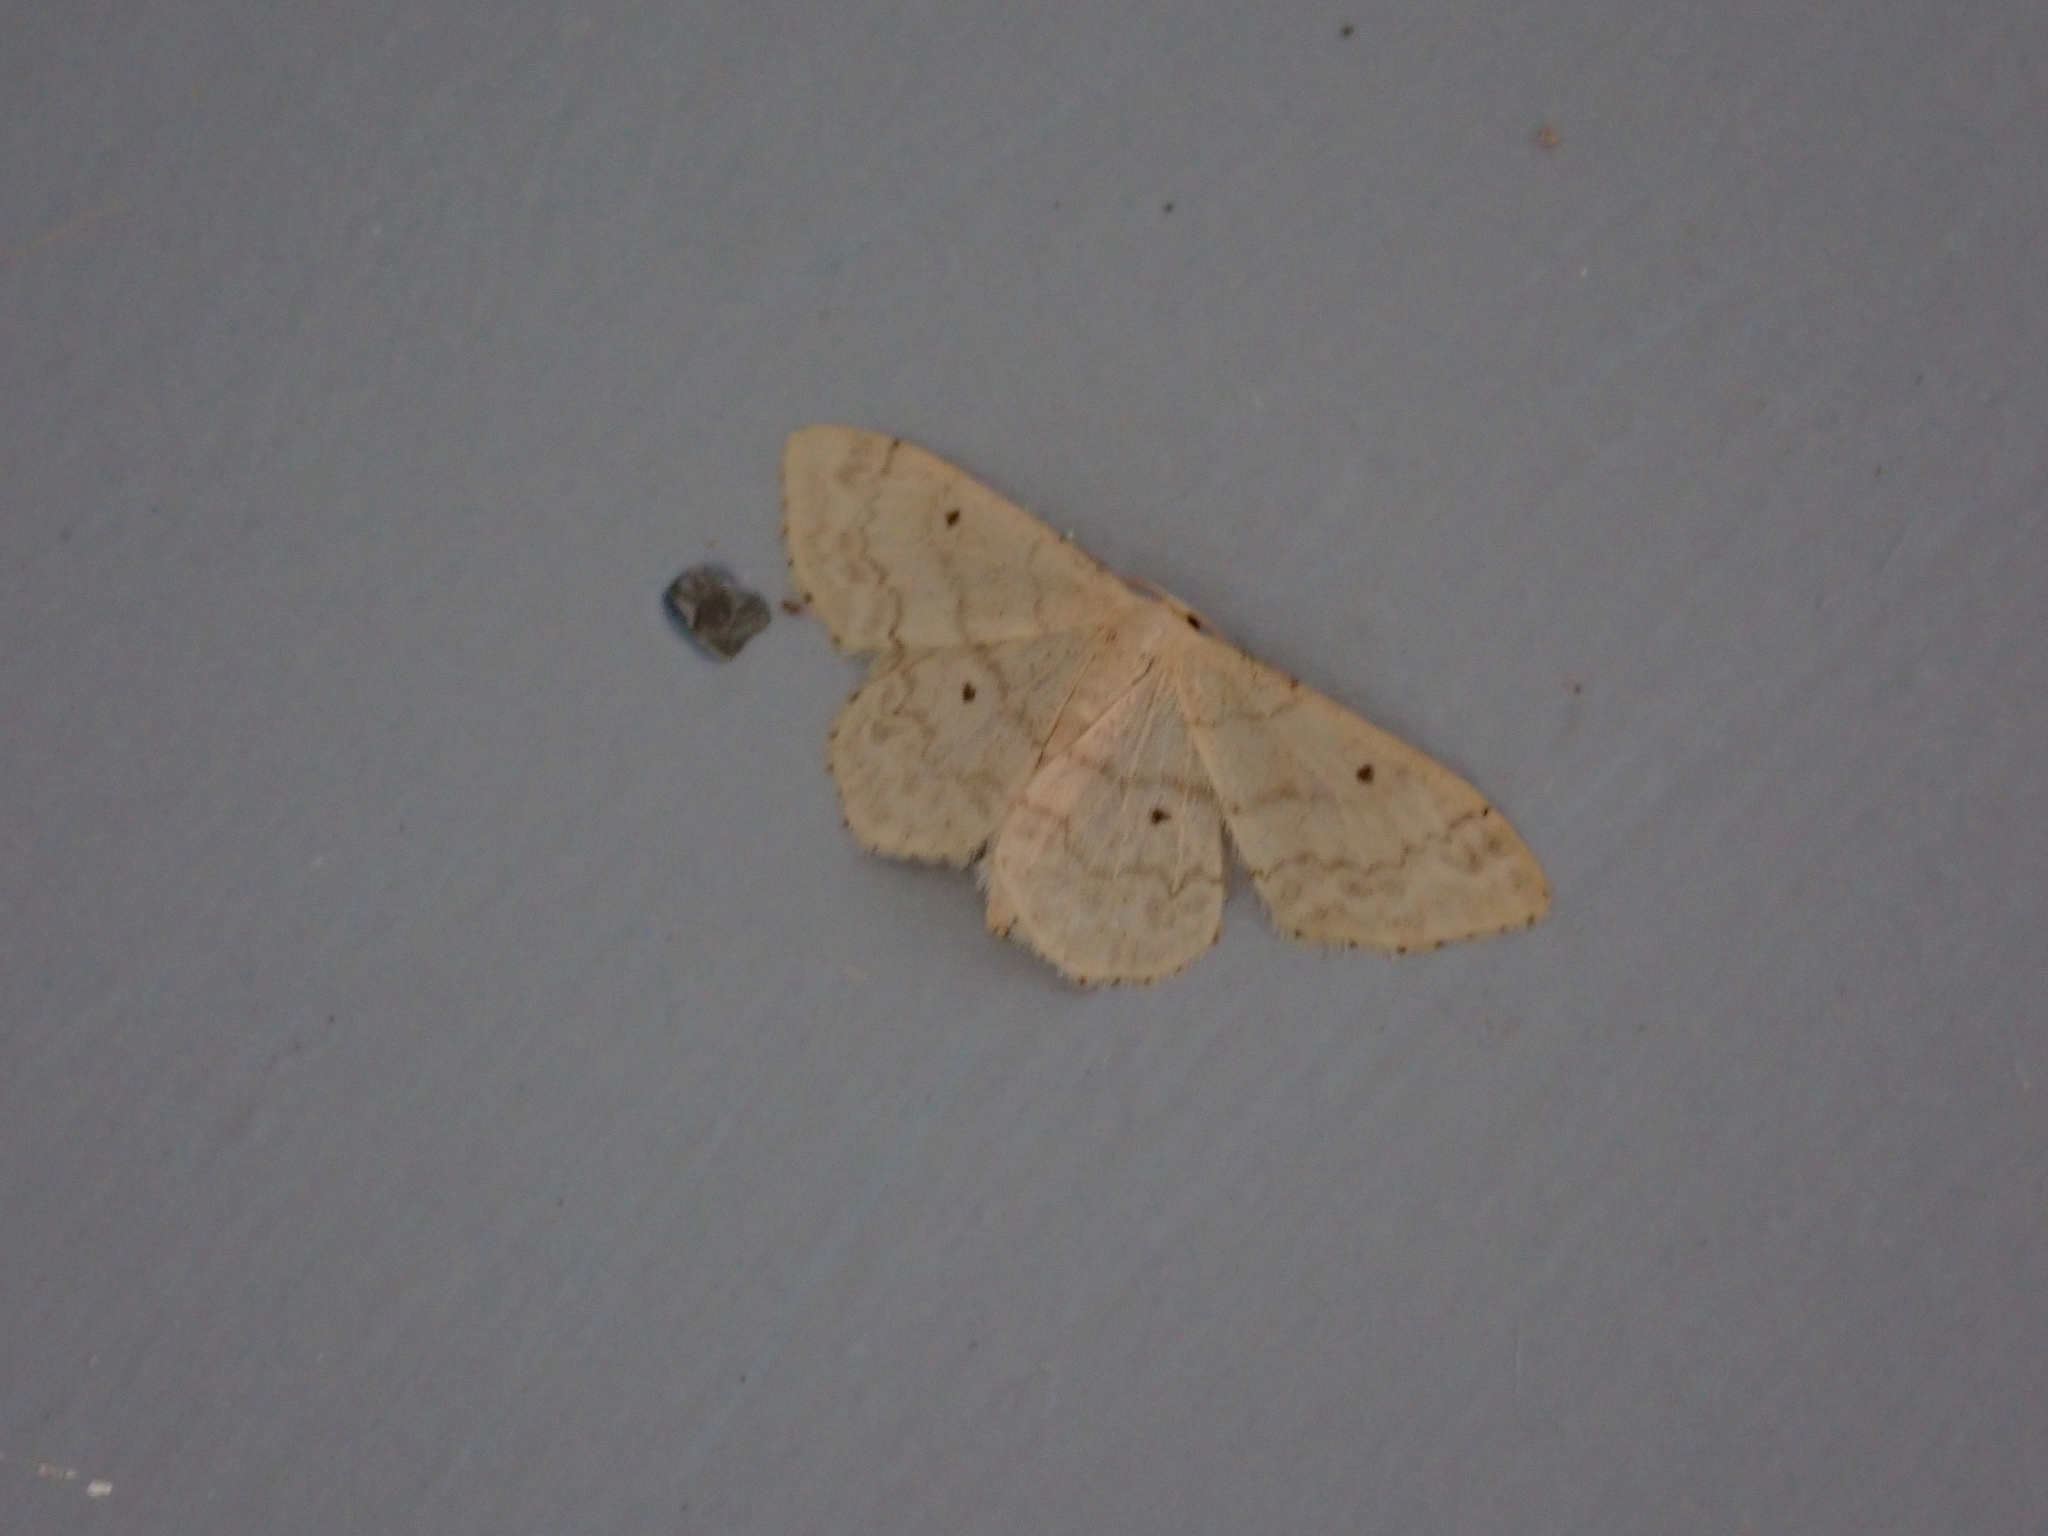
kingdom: Animalia
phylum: Arthropoda
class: Insecta
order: Lepidoptera
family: Geometridae
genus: Idaea
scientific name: Idaea biselata
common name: Small fan-footed wave
